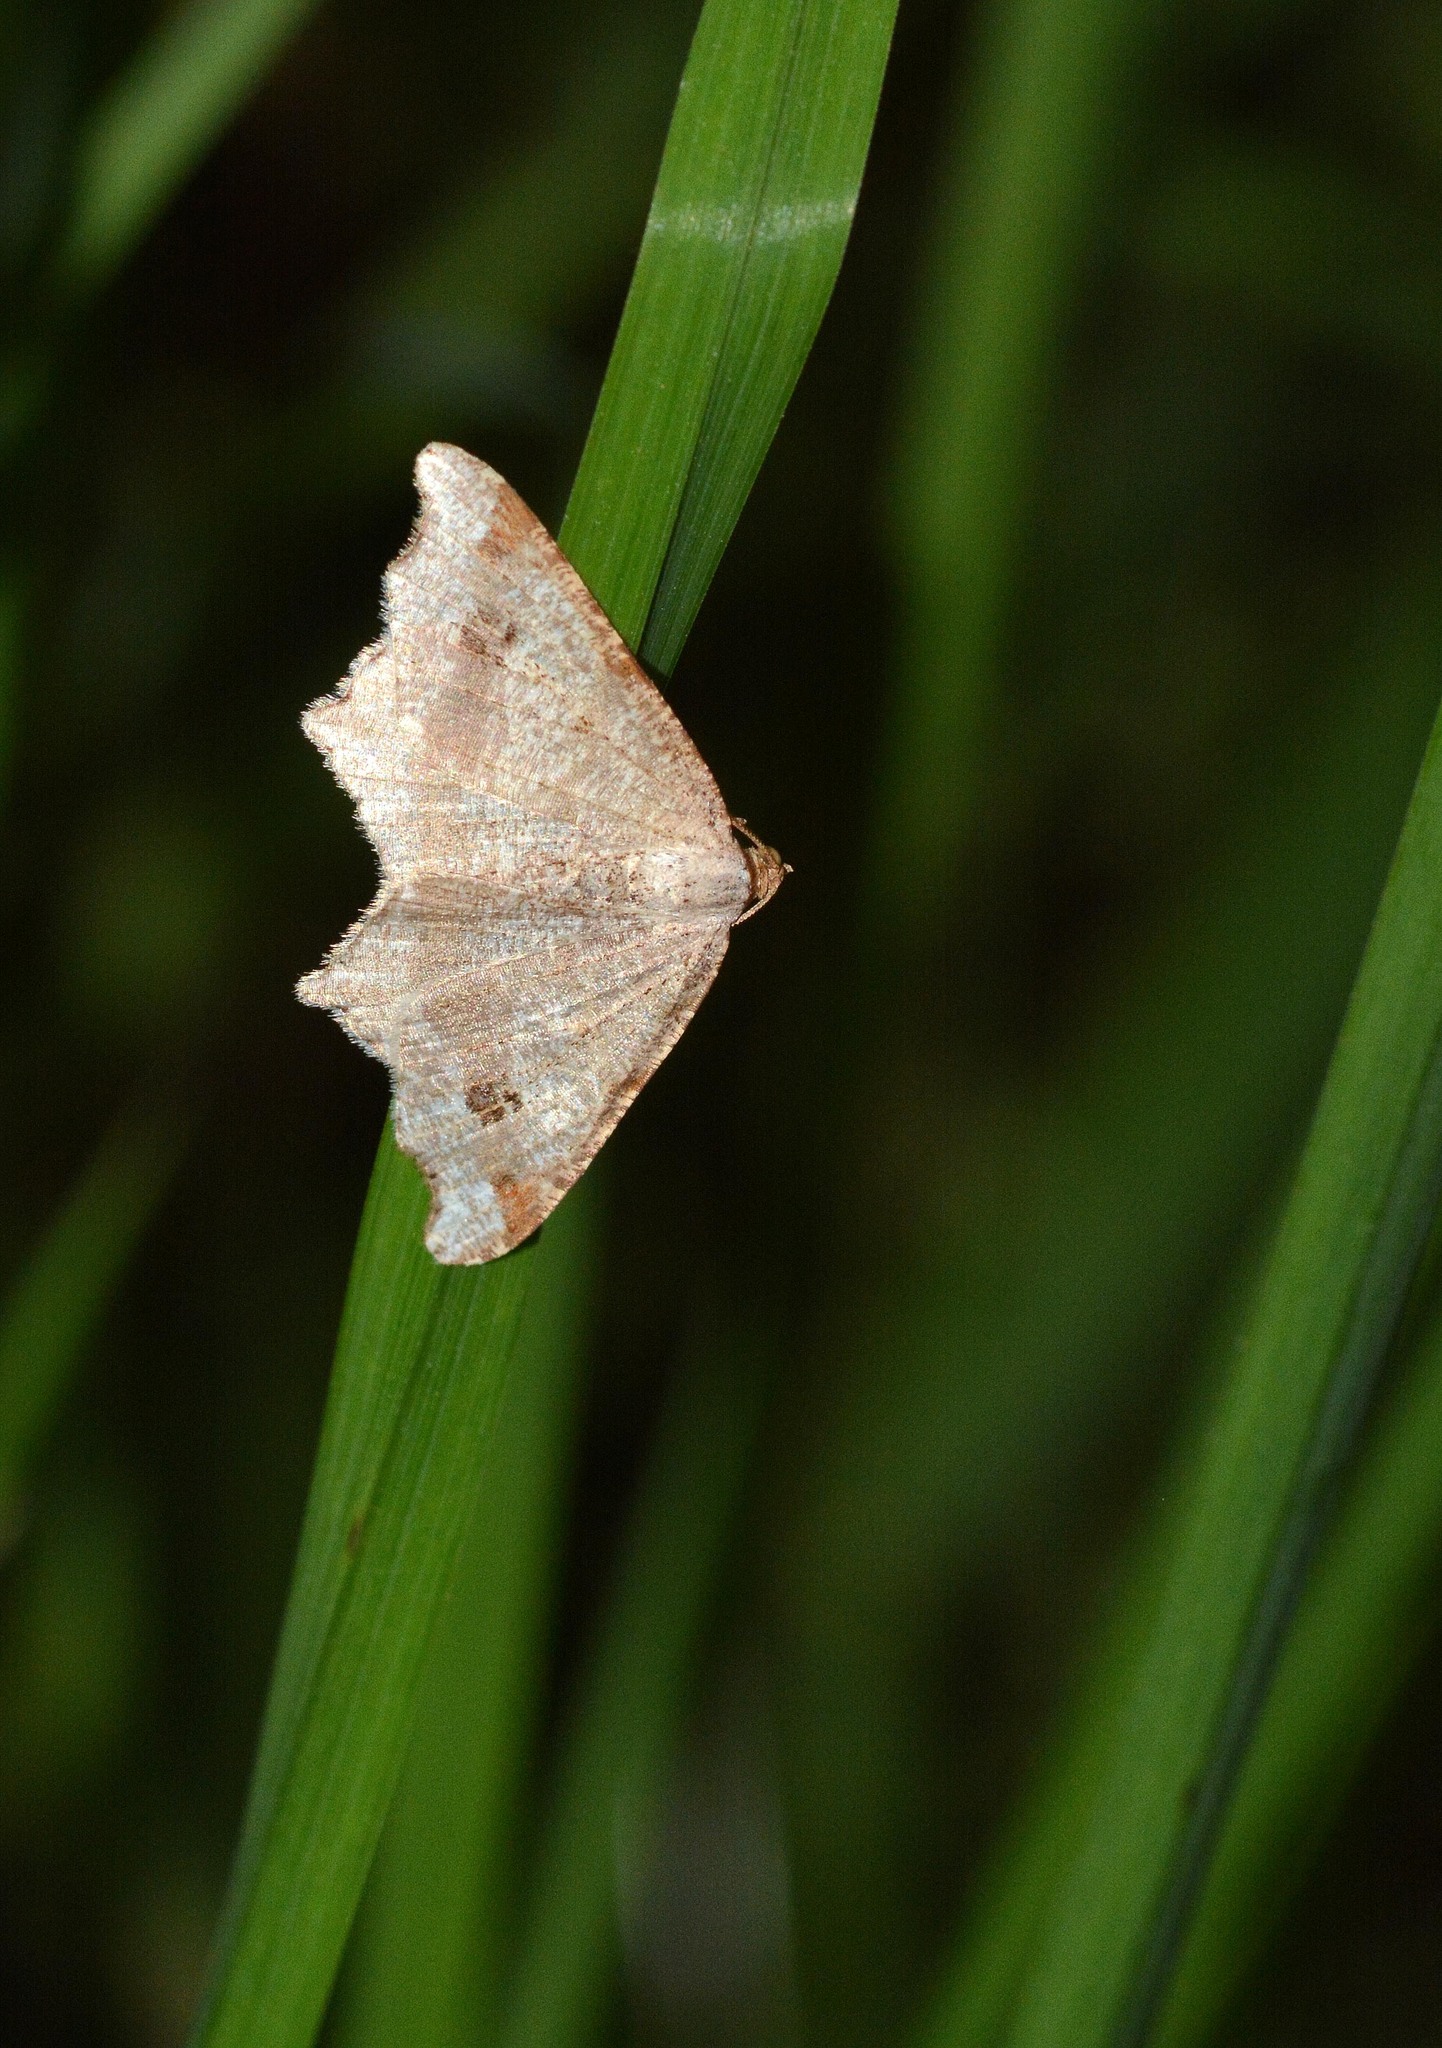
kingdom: Animalia
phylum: Arthropoda
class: Insecta
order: Lepidoptera
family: Geometridae
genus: Macaria
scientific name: Macaria alternata
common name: Sharp-angled peacock
